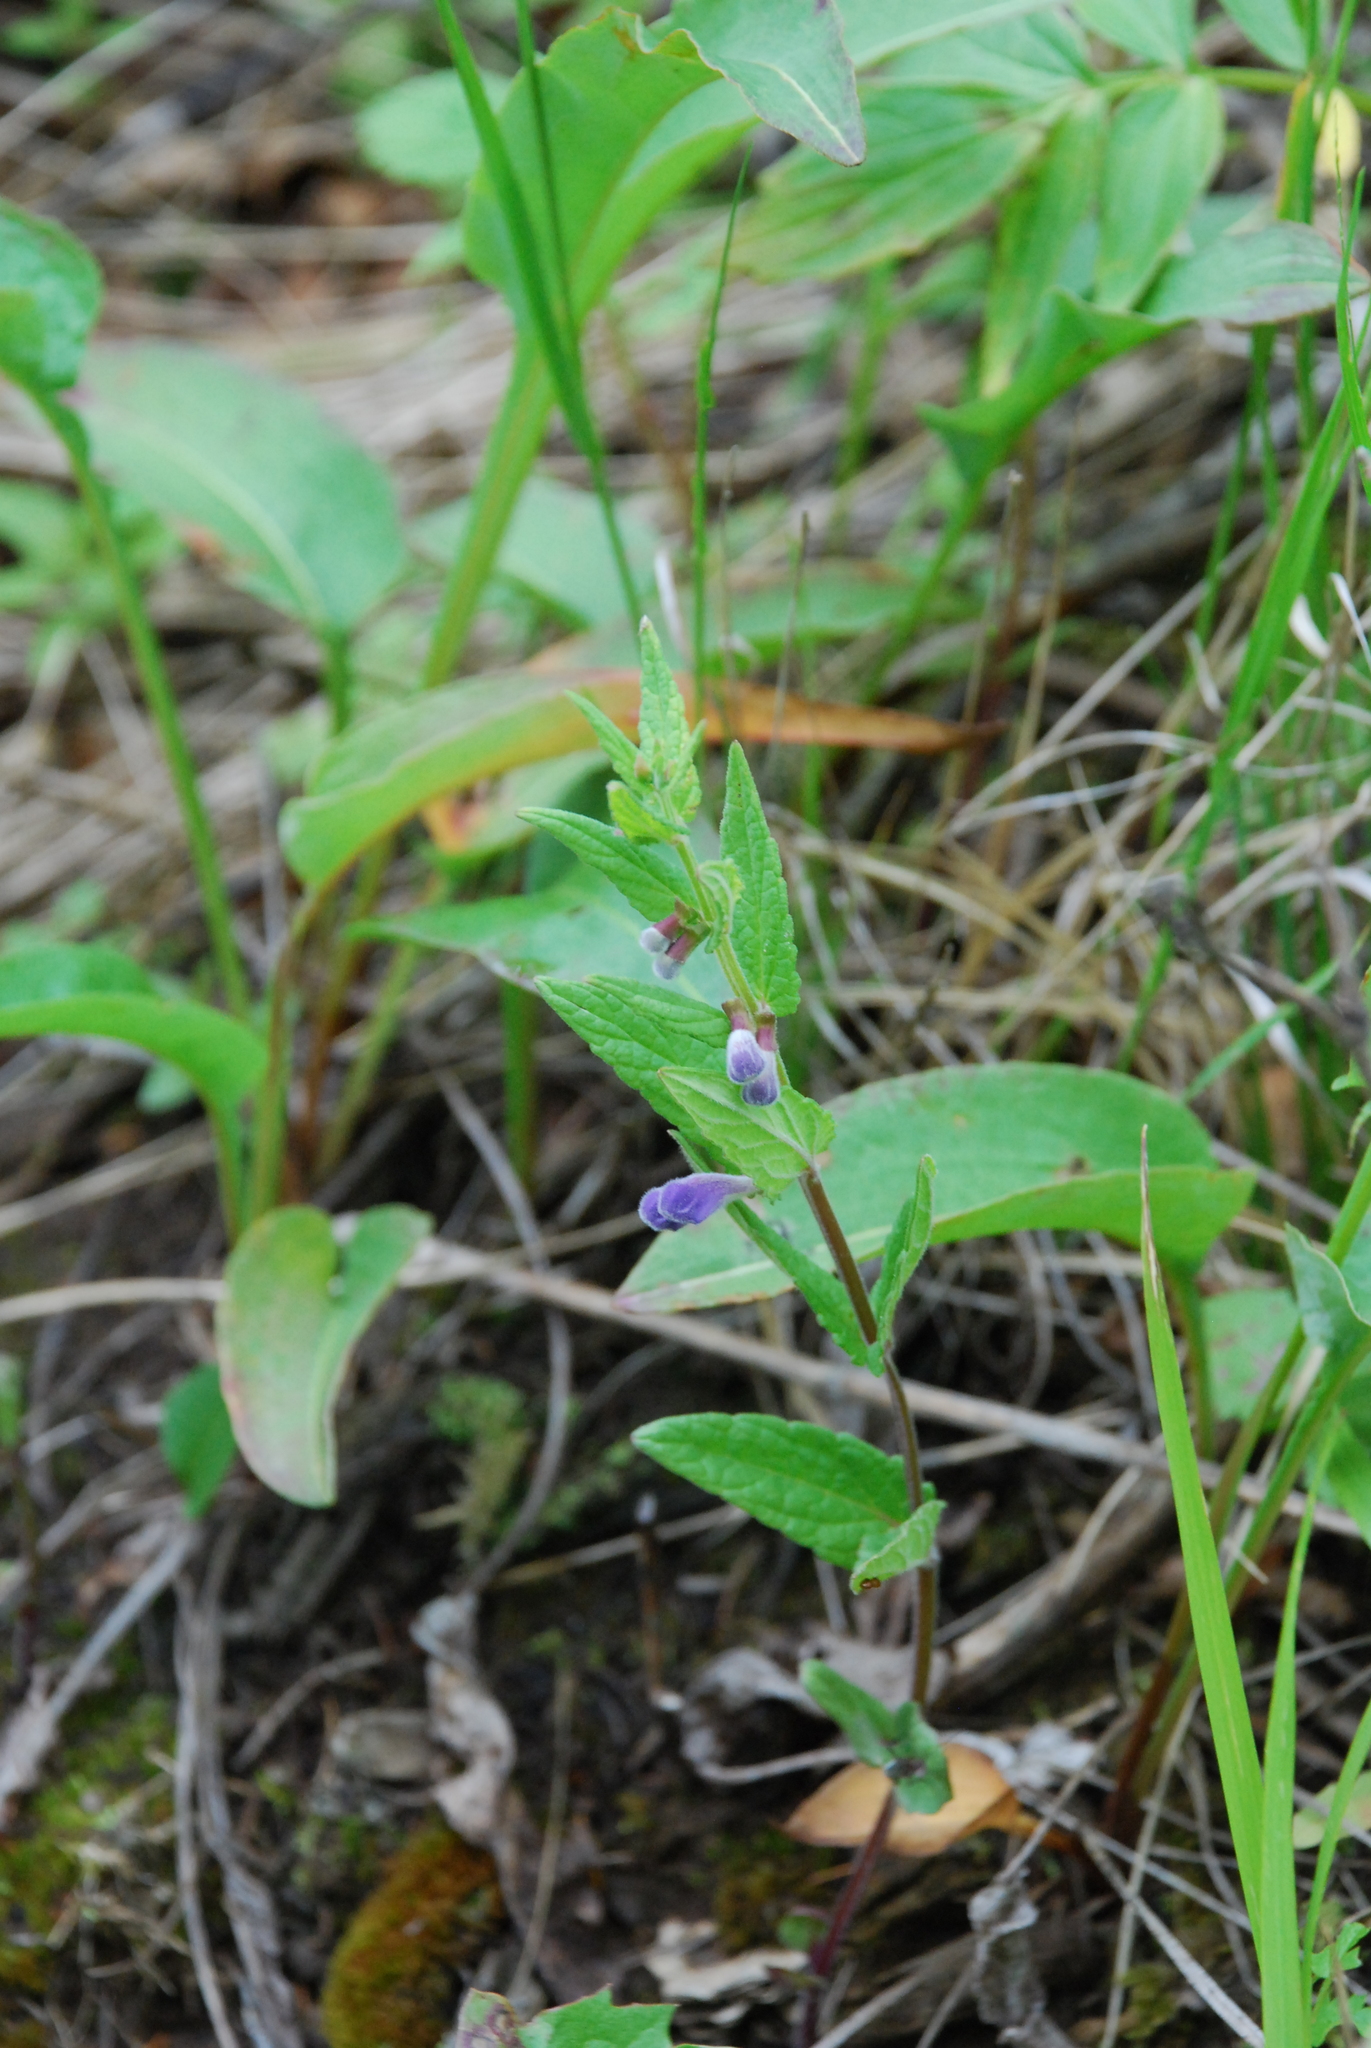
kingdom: Plantae
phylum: Tracheophyta
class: Magnoliopsida
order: Lamiales
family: Lamiaceae
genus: Scutellaria
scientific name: Scutellaria galericulata
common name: Skullcap
